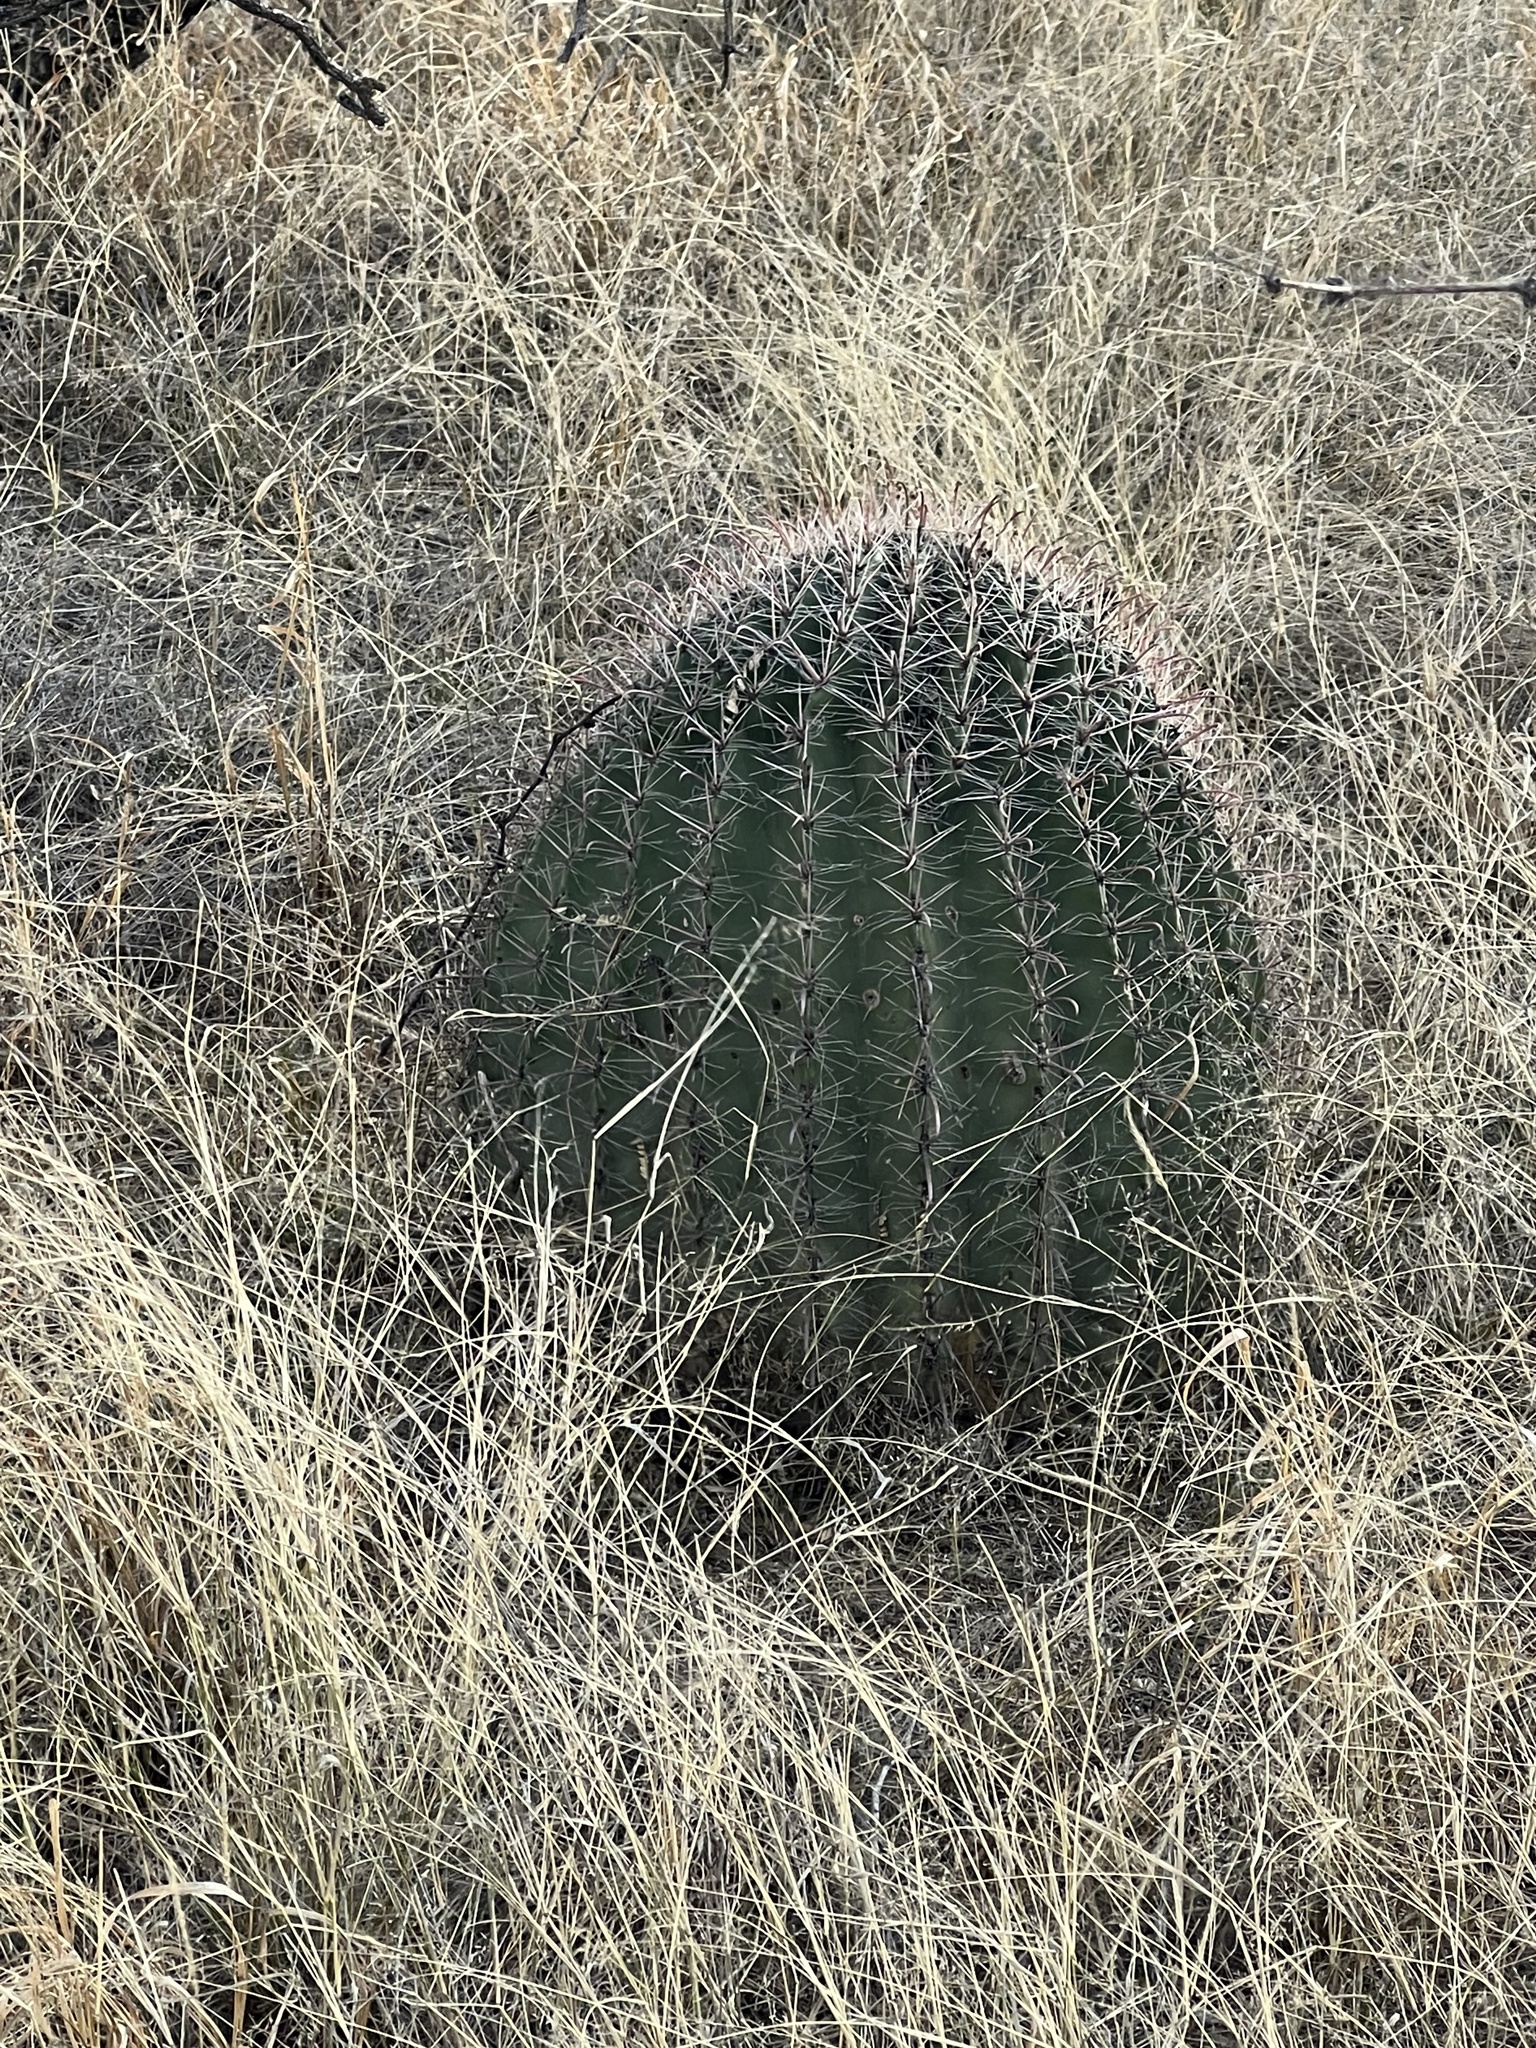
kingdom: Plantae
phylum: Tracheophyta
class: Magnoliopsida
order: Caryophyllales
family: Cactaceae
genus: Ferocactus
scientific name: Ferocactus wislizeni
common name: Candy barrel cactus
